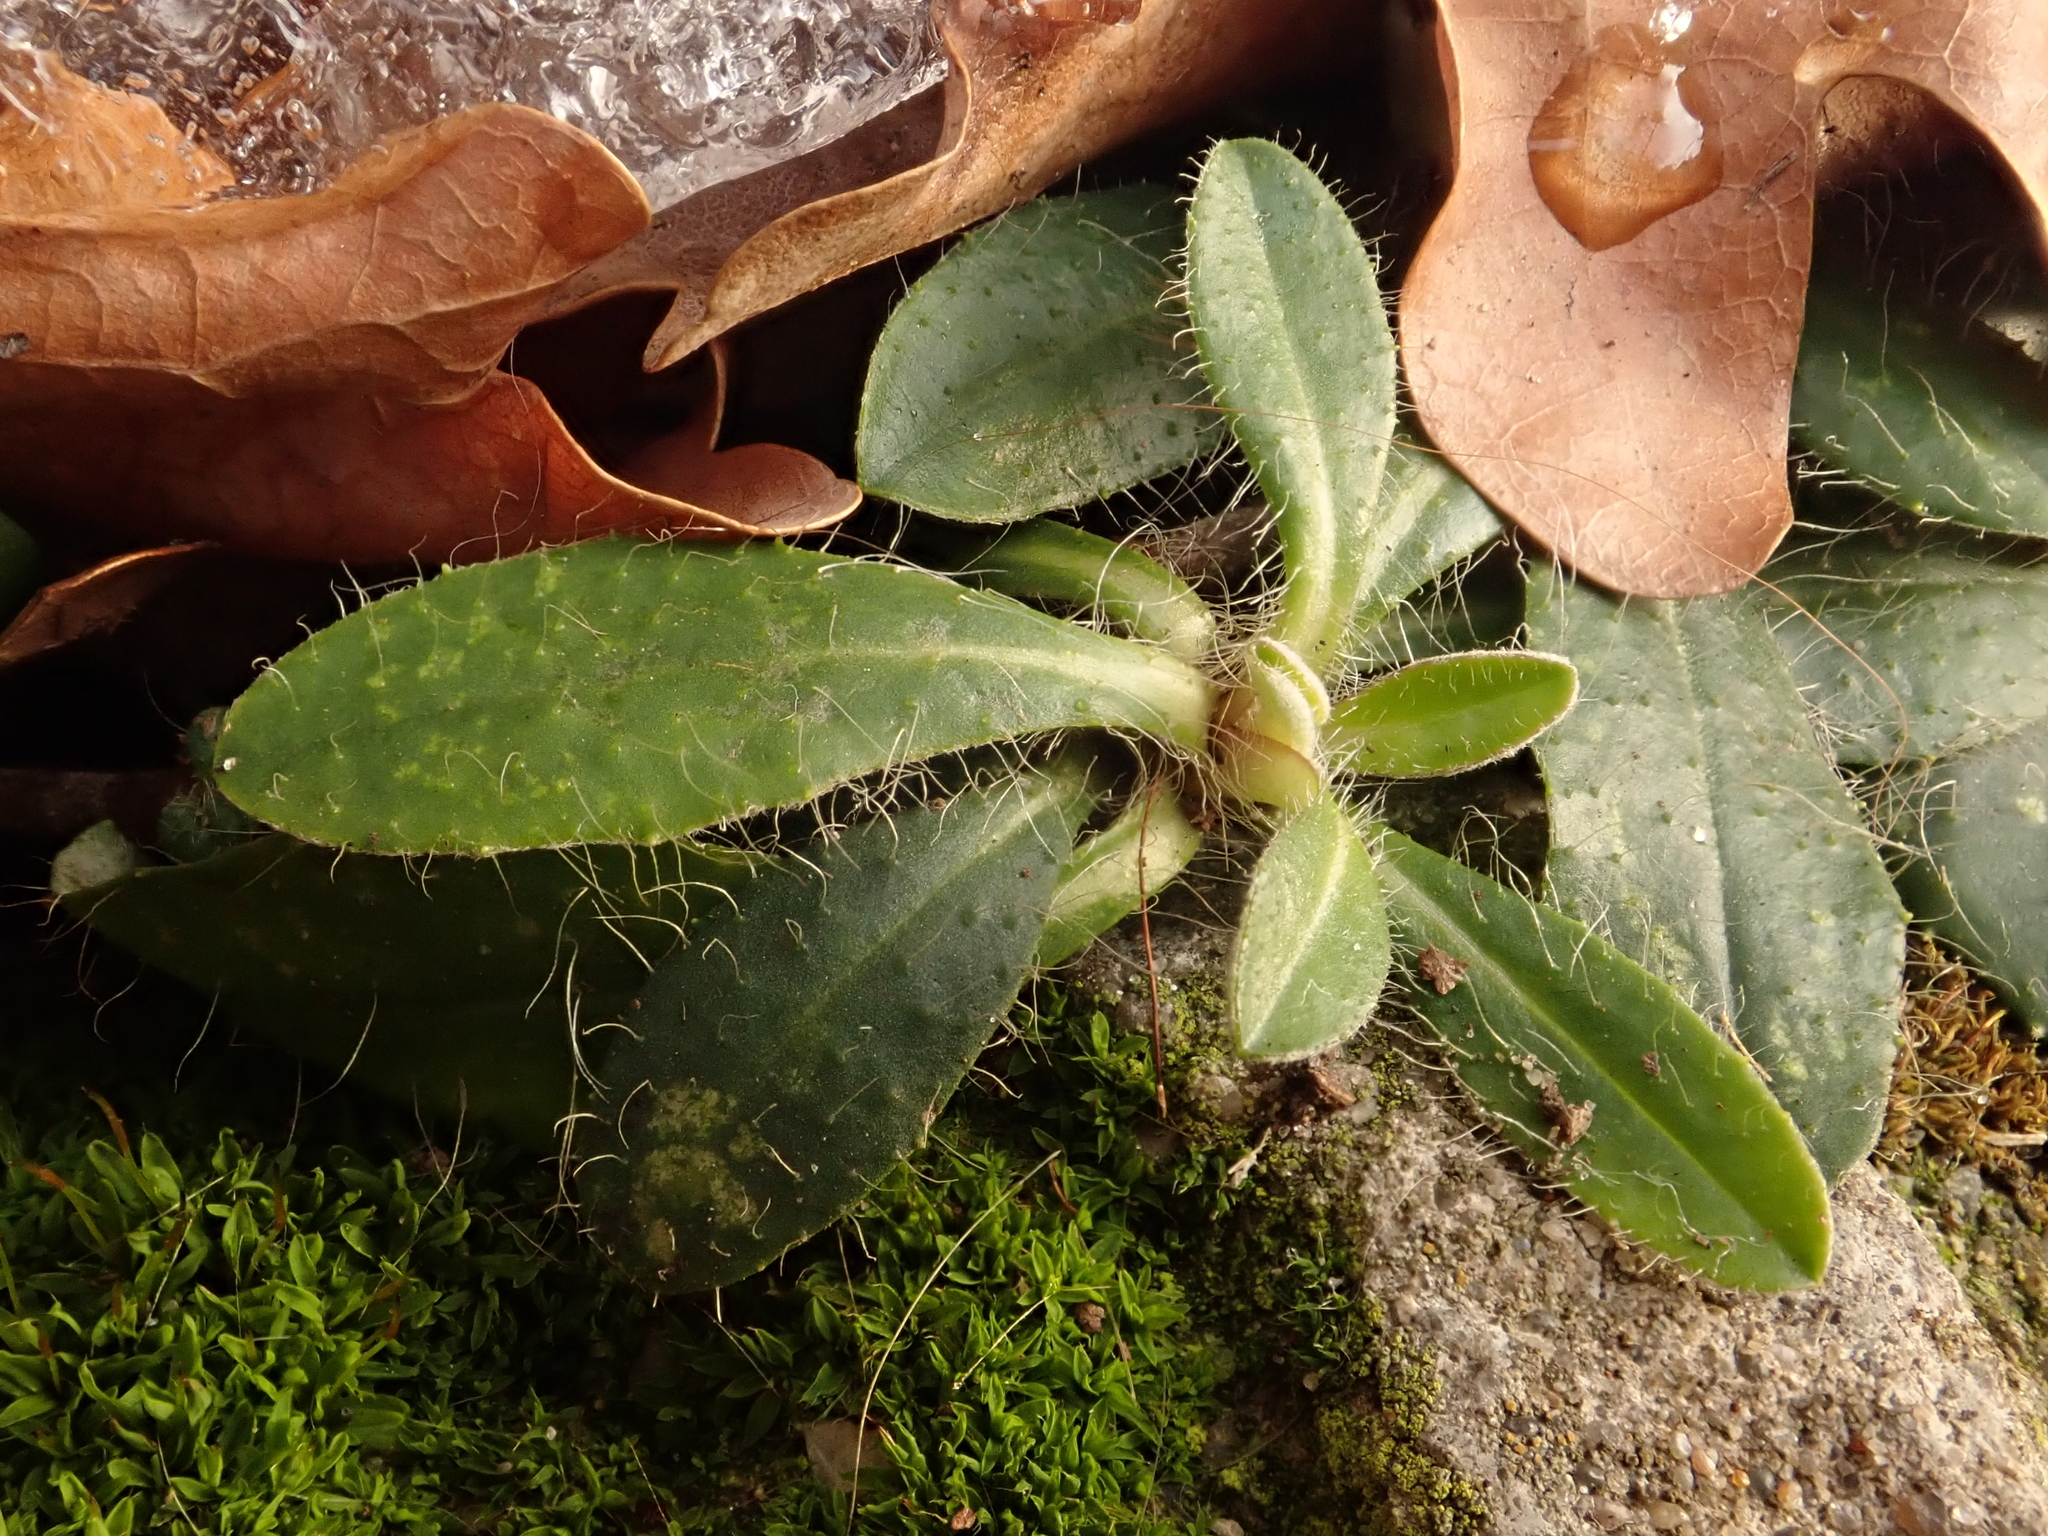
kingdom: Plantae
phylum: Tracheophyta
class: Magnoliopsida
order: Asterales
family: Asteraceae
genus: Pilosella
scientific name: Pilosella officinarum
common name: Mouse-ear hawkweed
